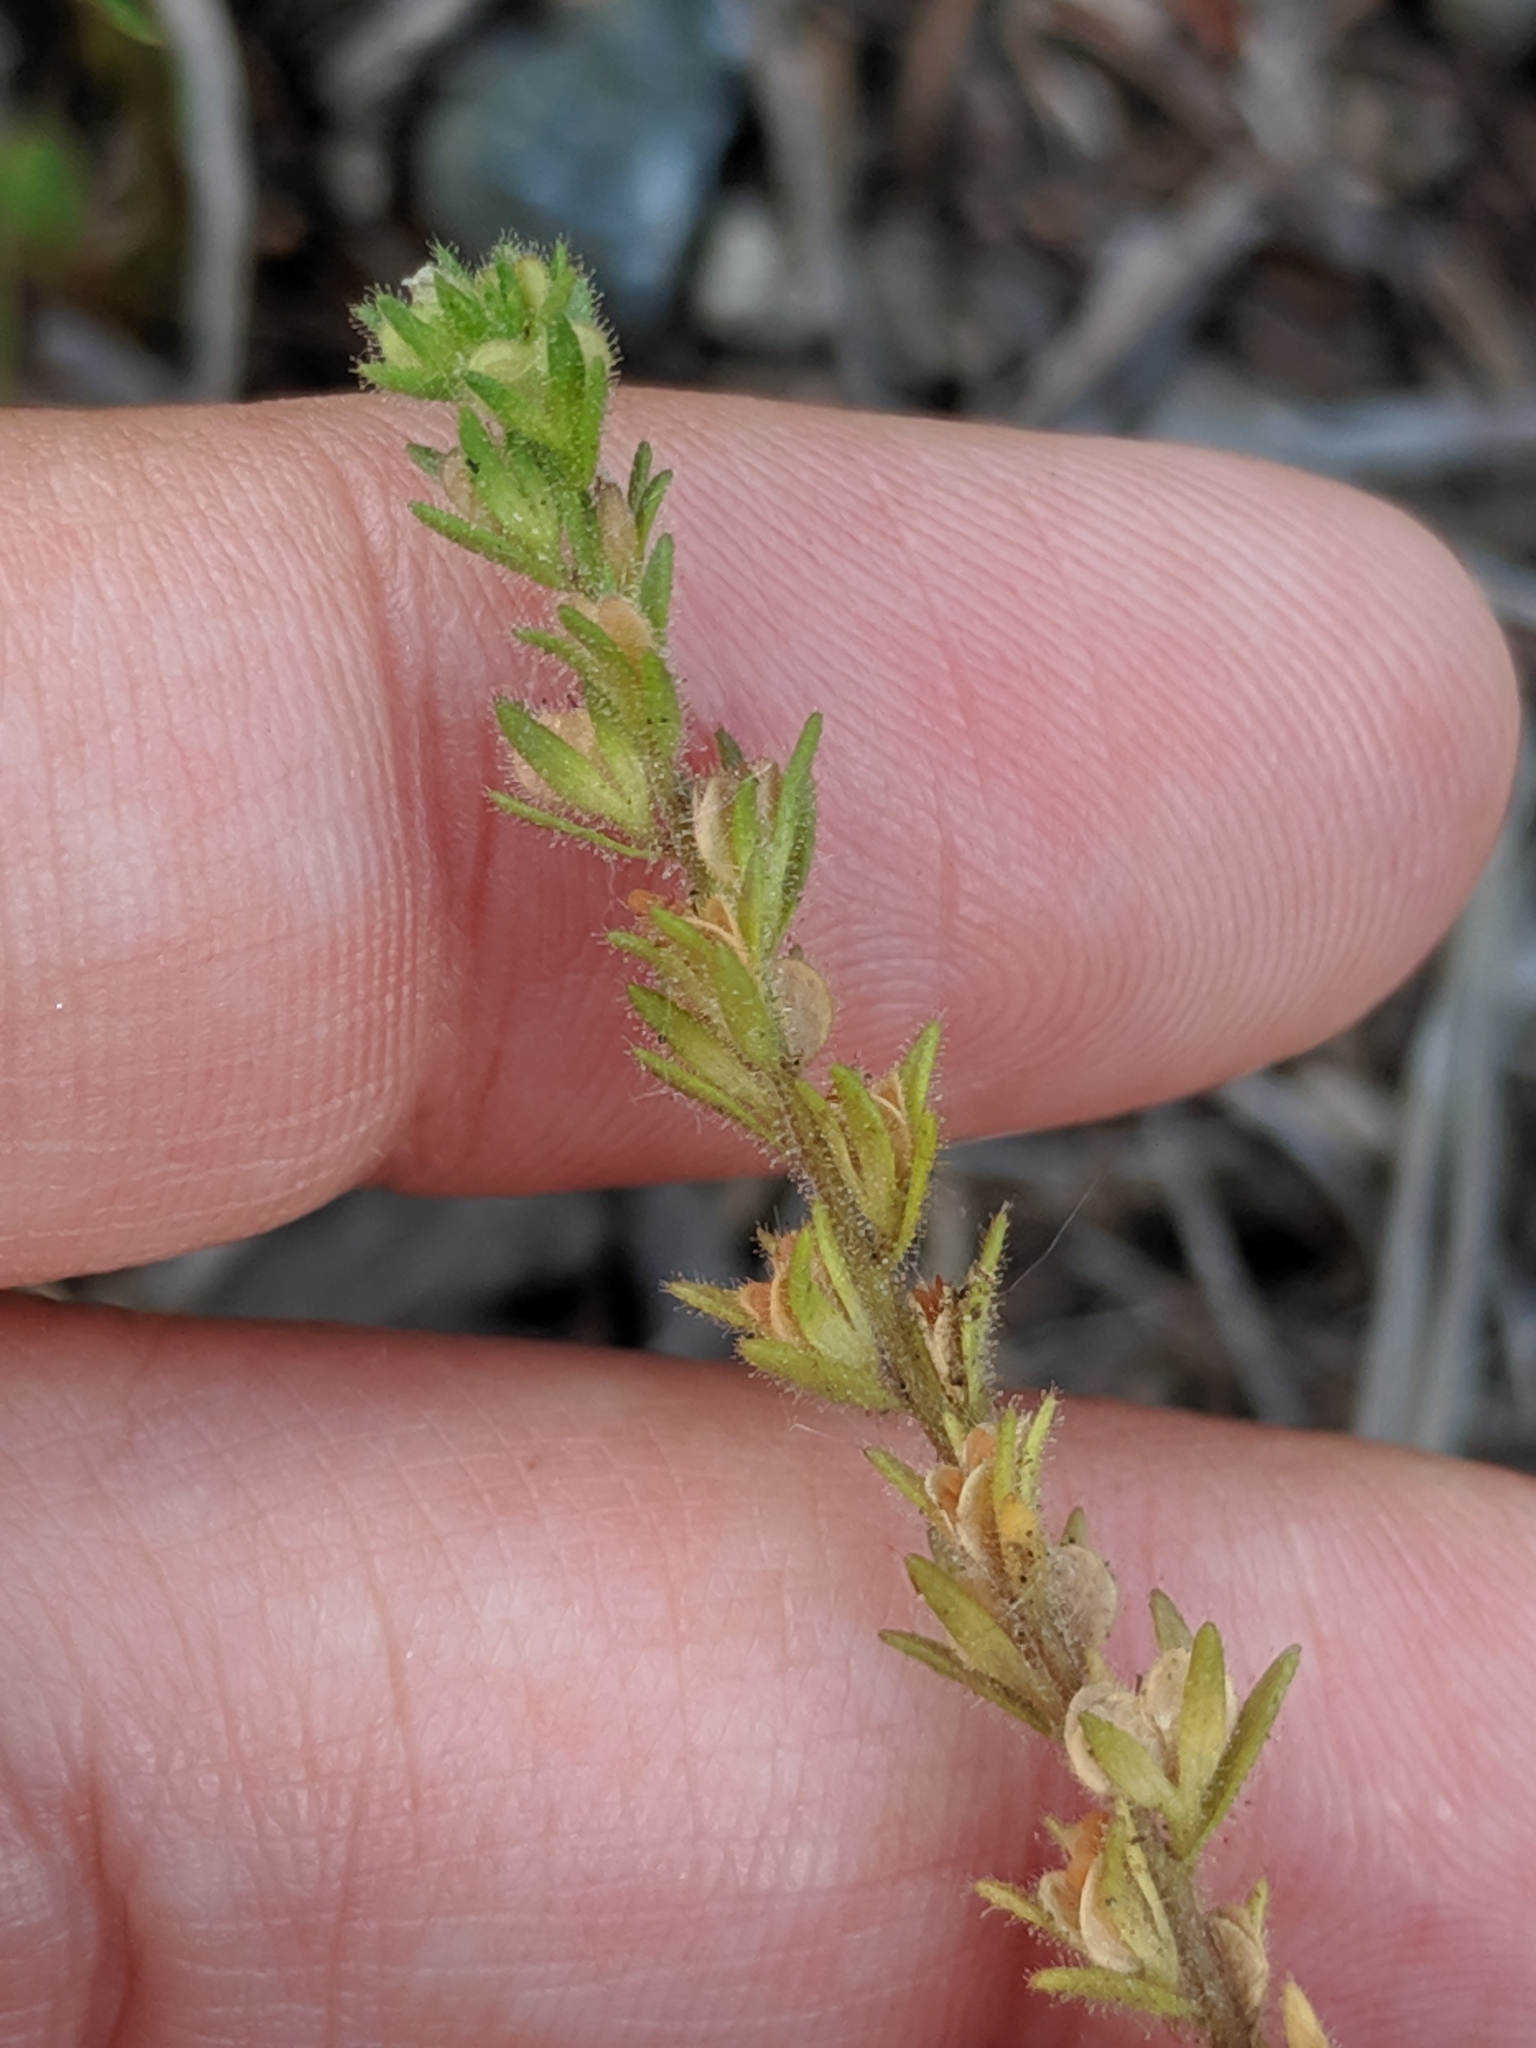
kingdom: Plantae
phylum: Tracheophyta
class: Magnoliopsida
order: Lamiales
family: Plantaginaceae
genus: Veronica
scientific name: Veronica verna
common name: Spring speedwell
